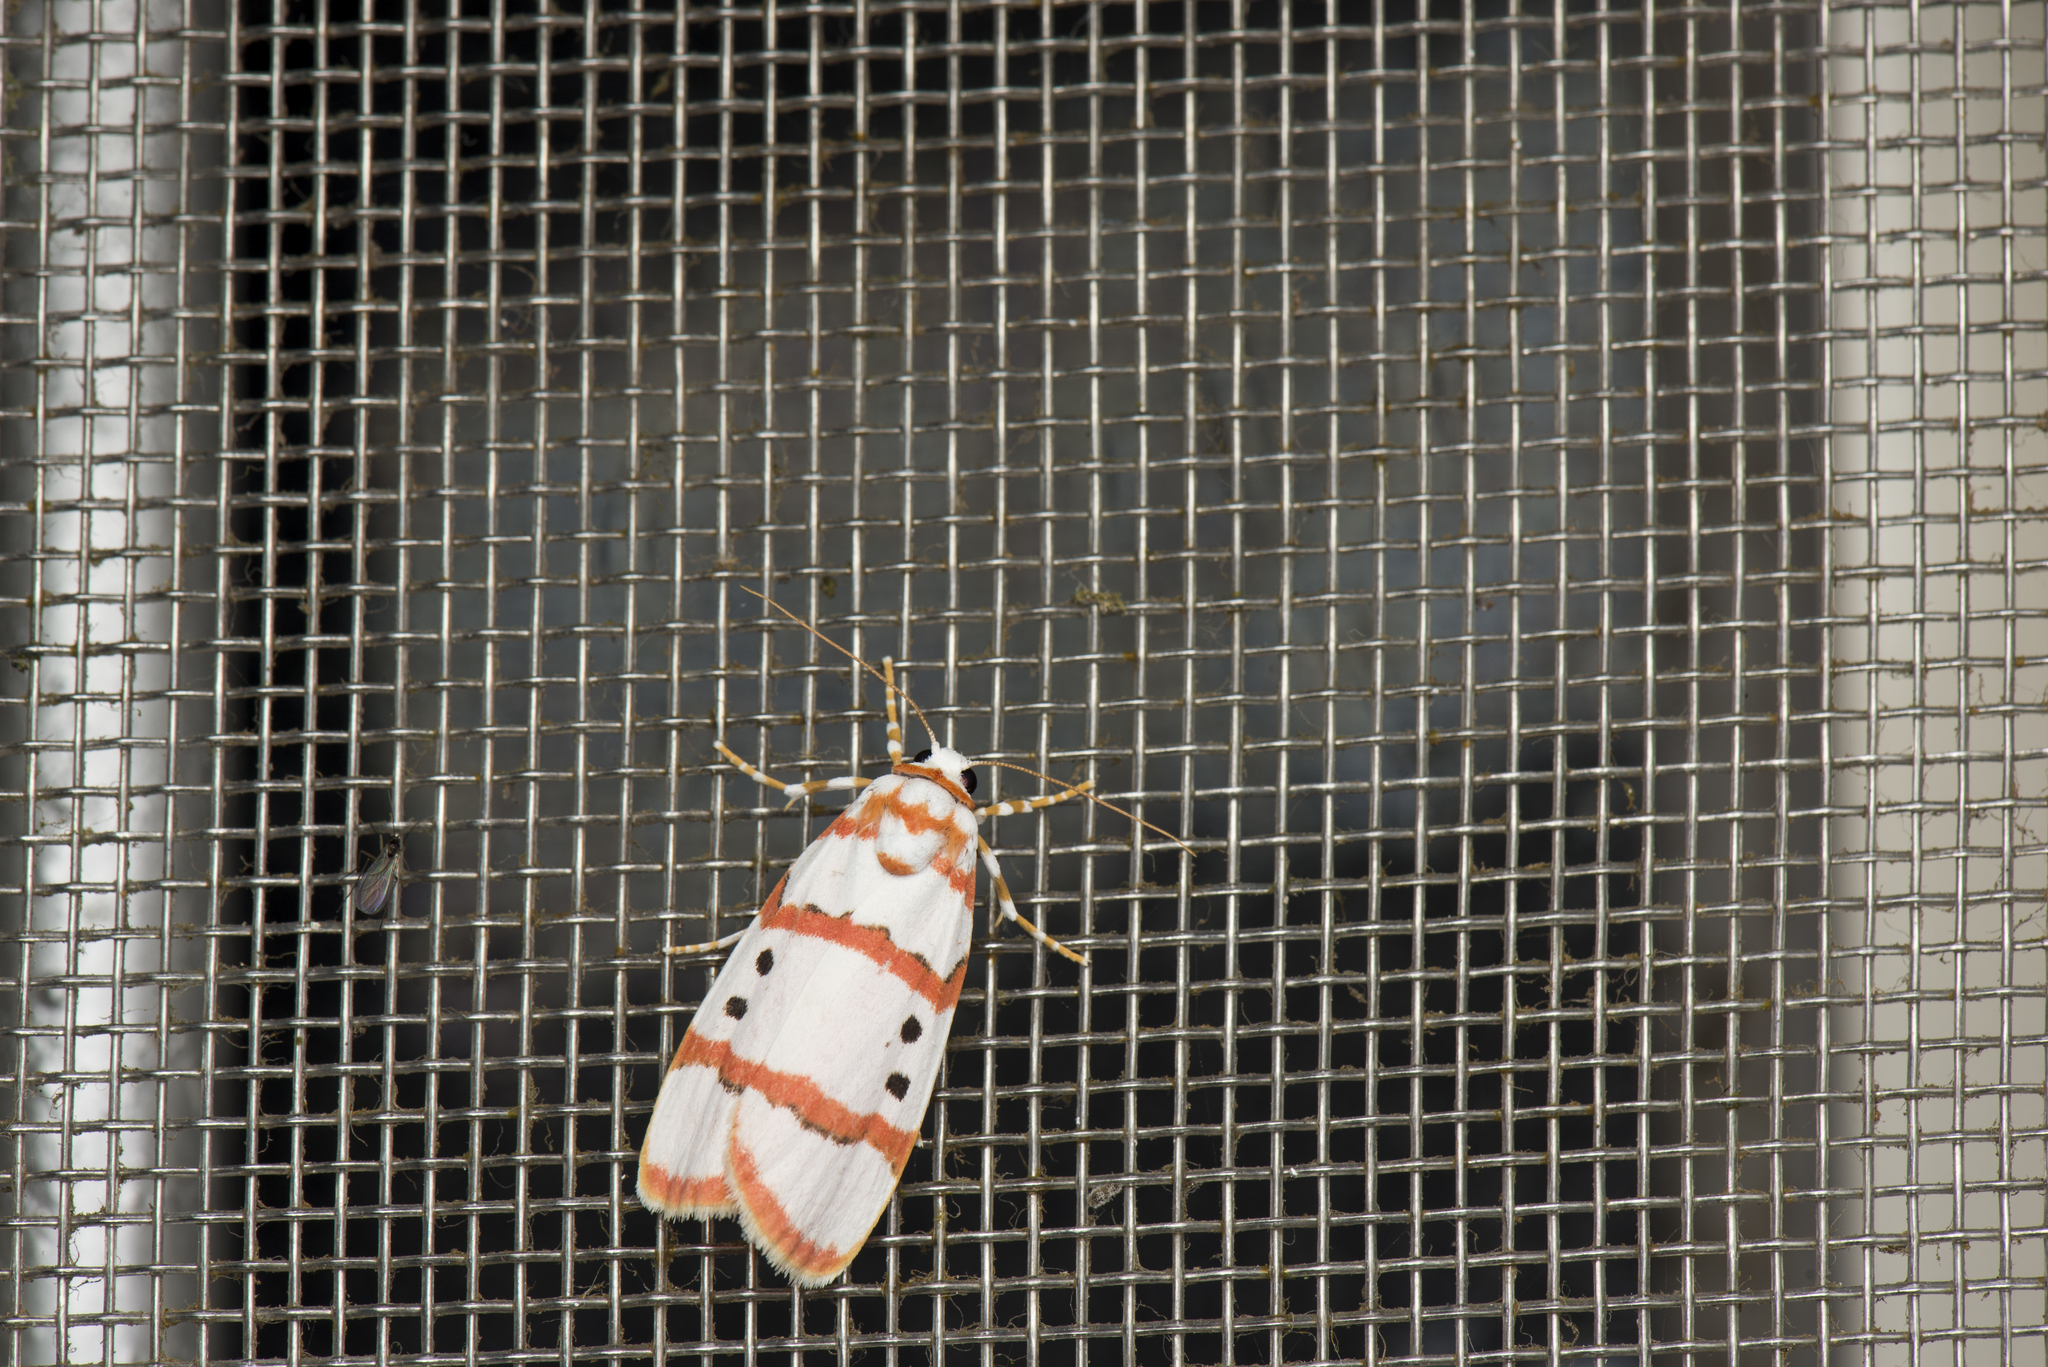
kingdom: Animalia
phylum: Arthropoda
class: Insecta
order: Lepidoptera
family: Erebidae
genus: Cyana
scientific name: Cyana quadripartita
